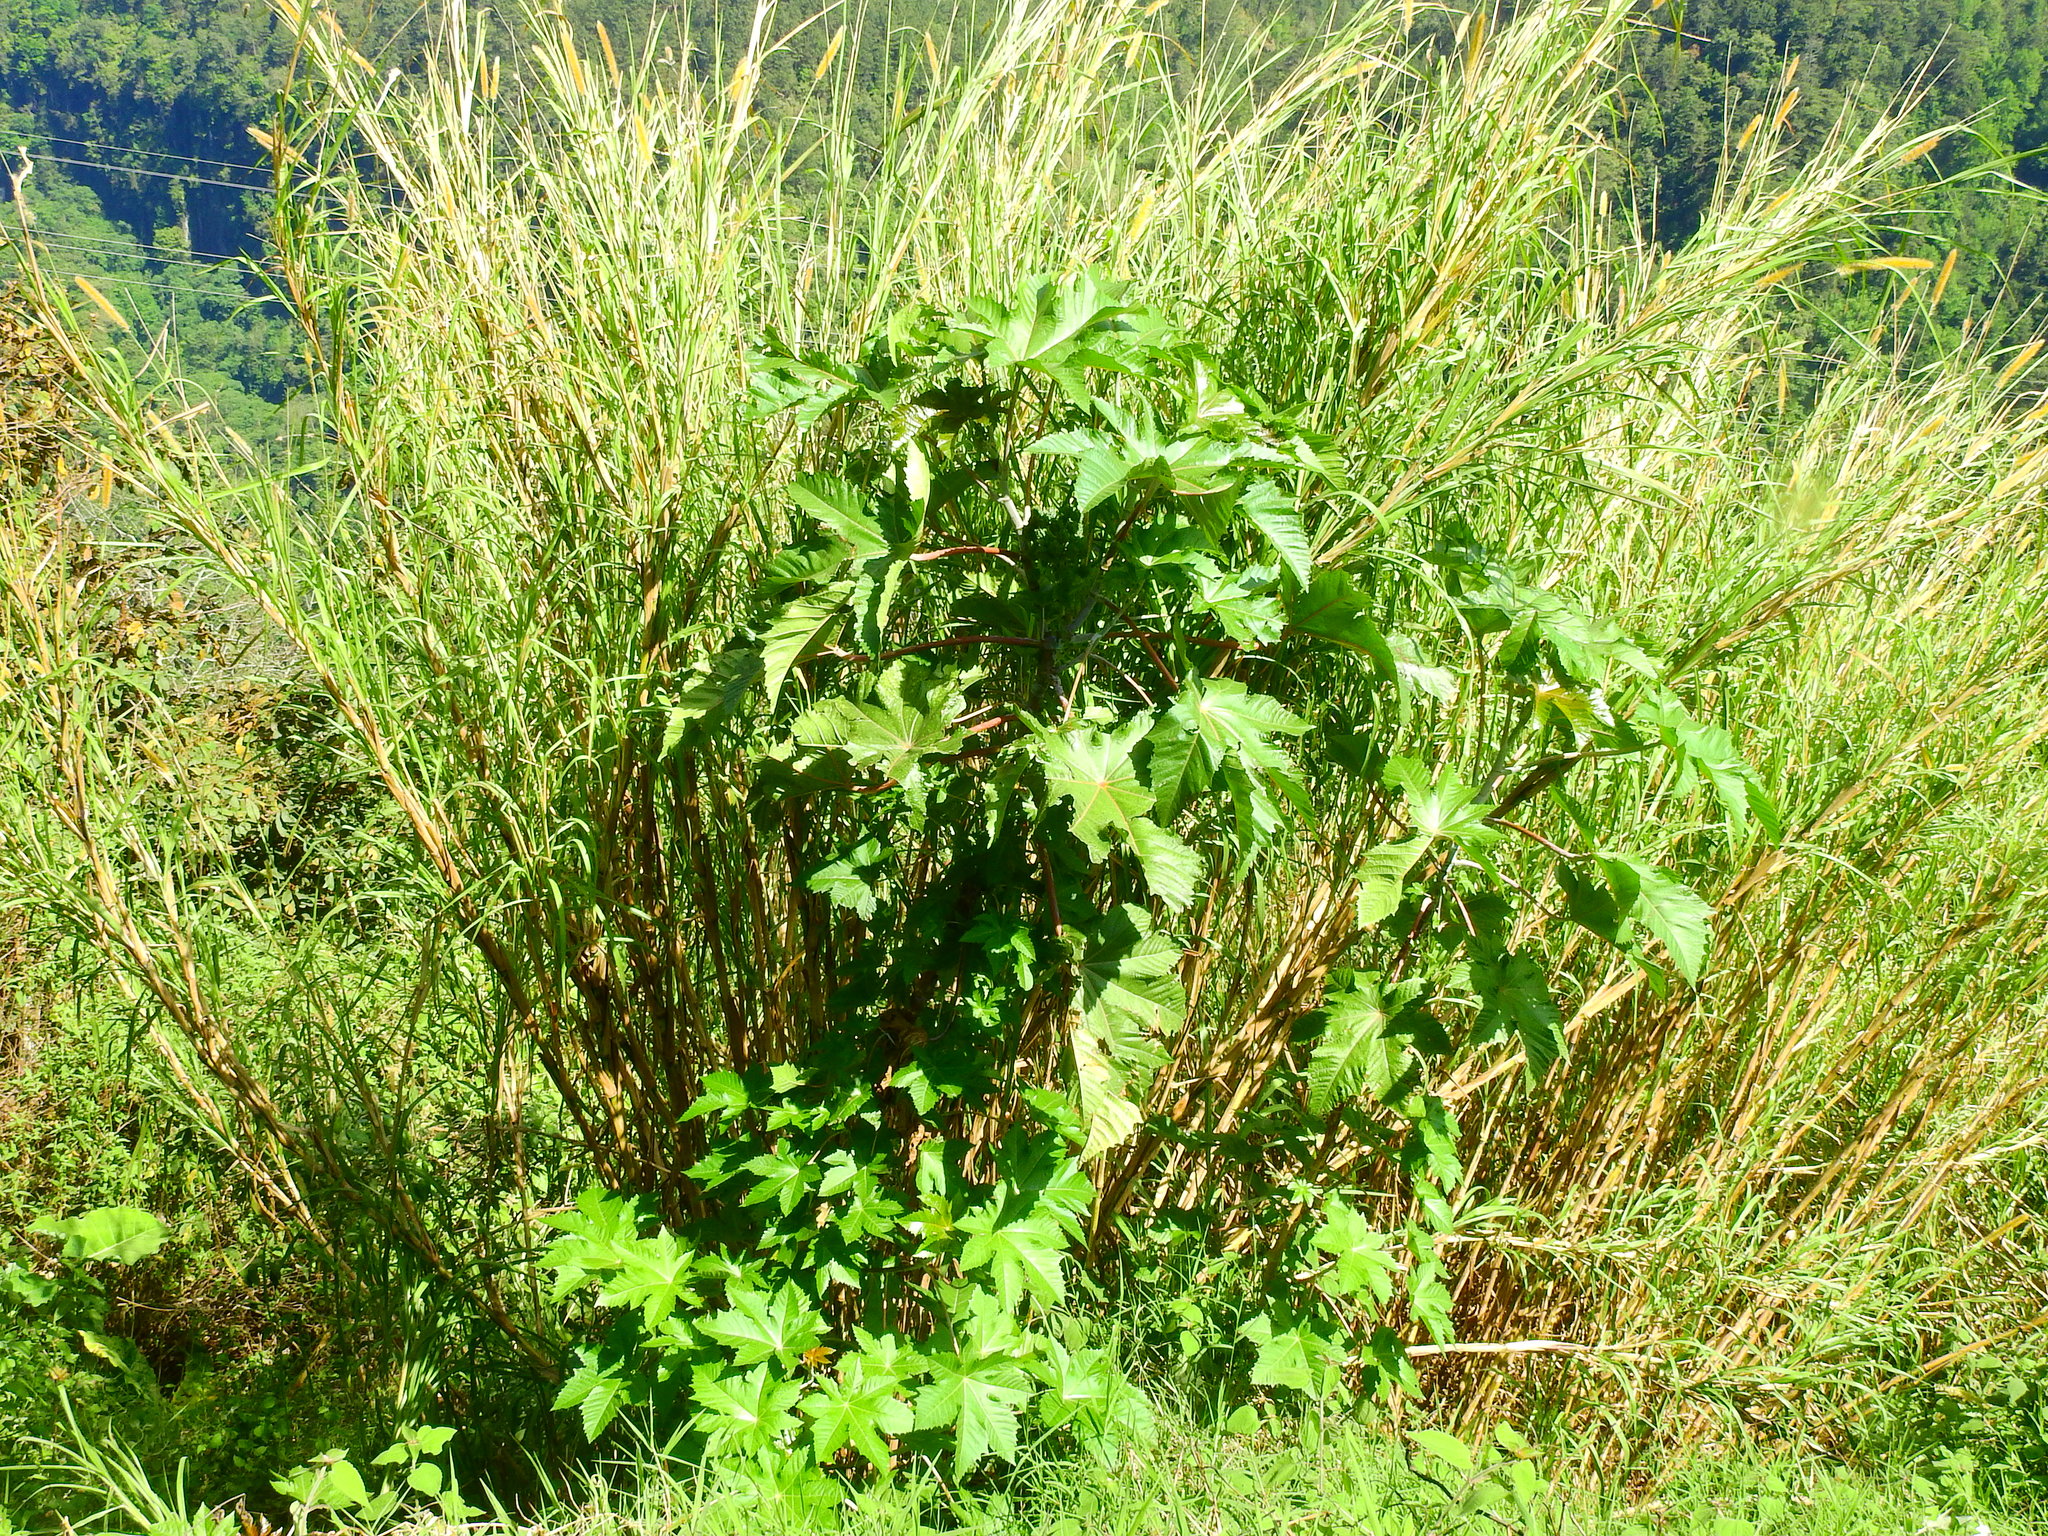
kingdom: Plantae
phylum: Tracheophyta
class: Magnoliopsida
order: Malpighiales
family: Euphorbiaceae
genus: Ricinus
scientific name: Ricinus communis
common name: Castor-oil-plant
